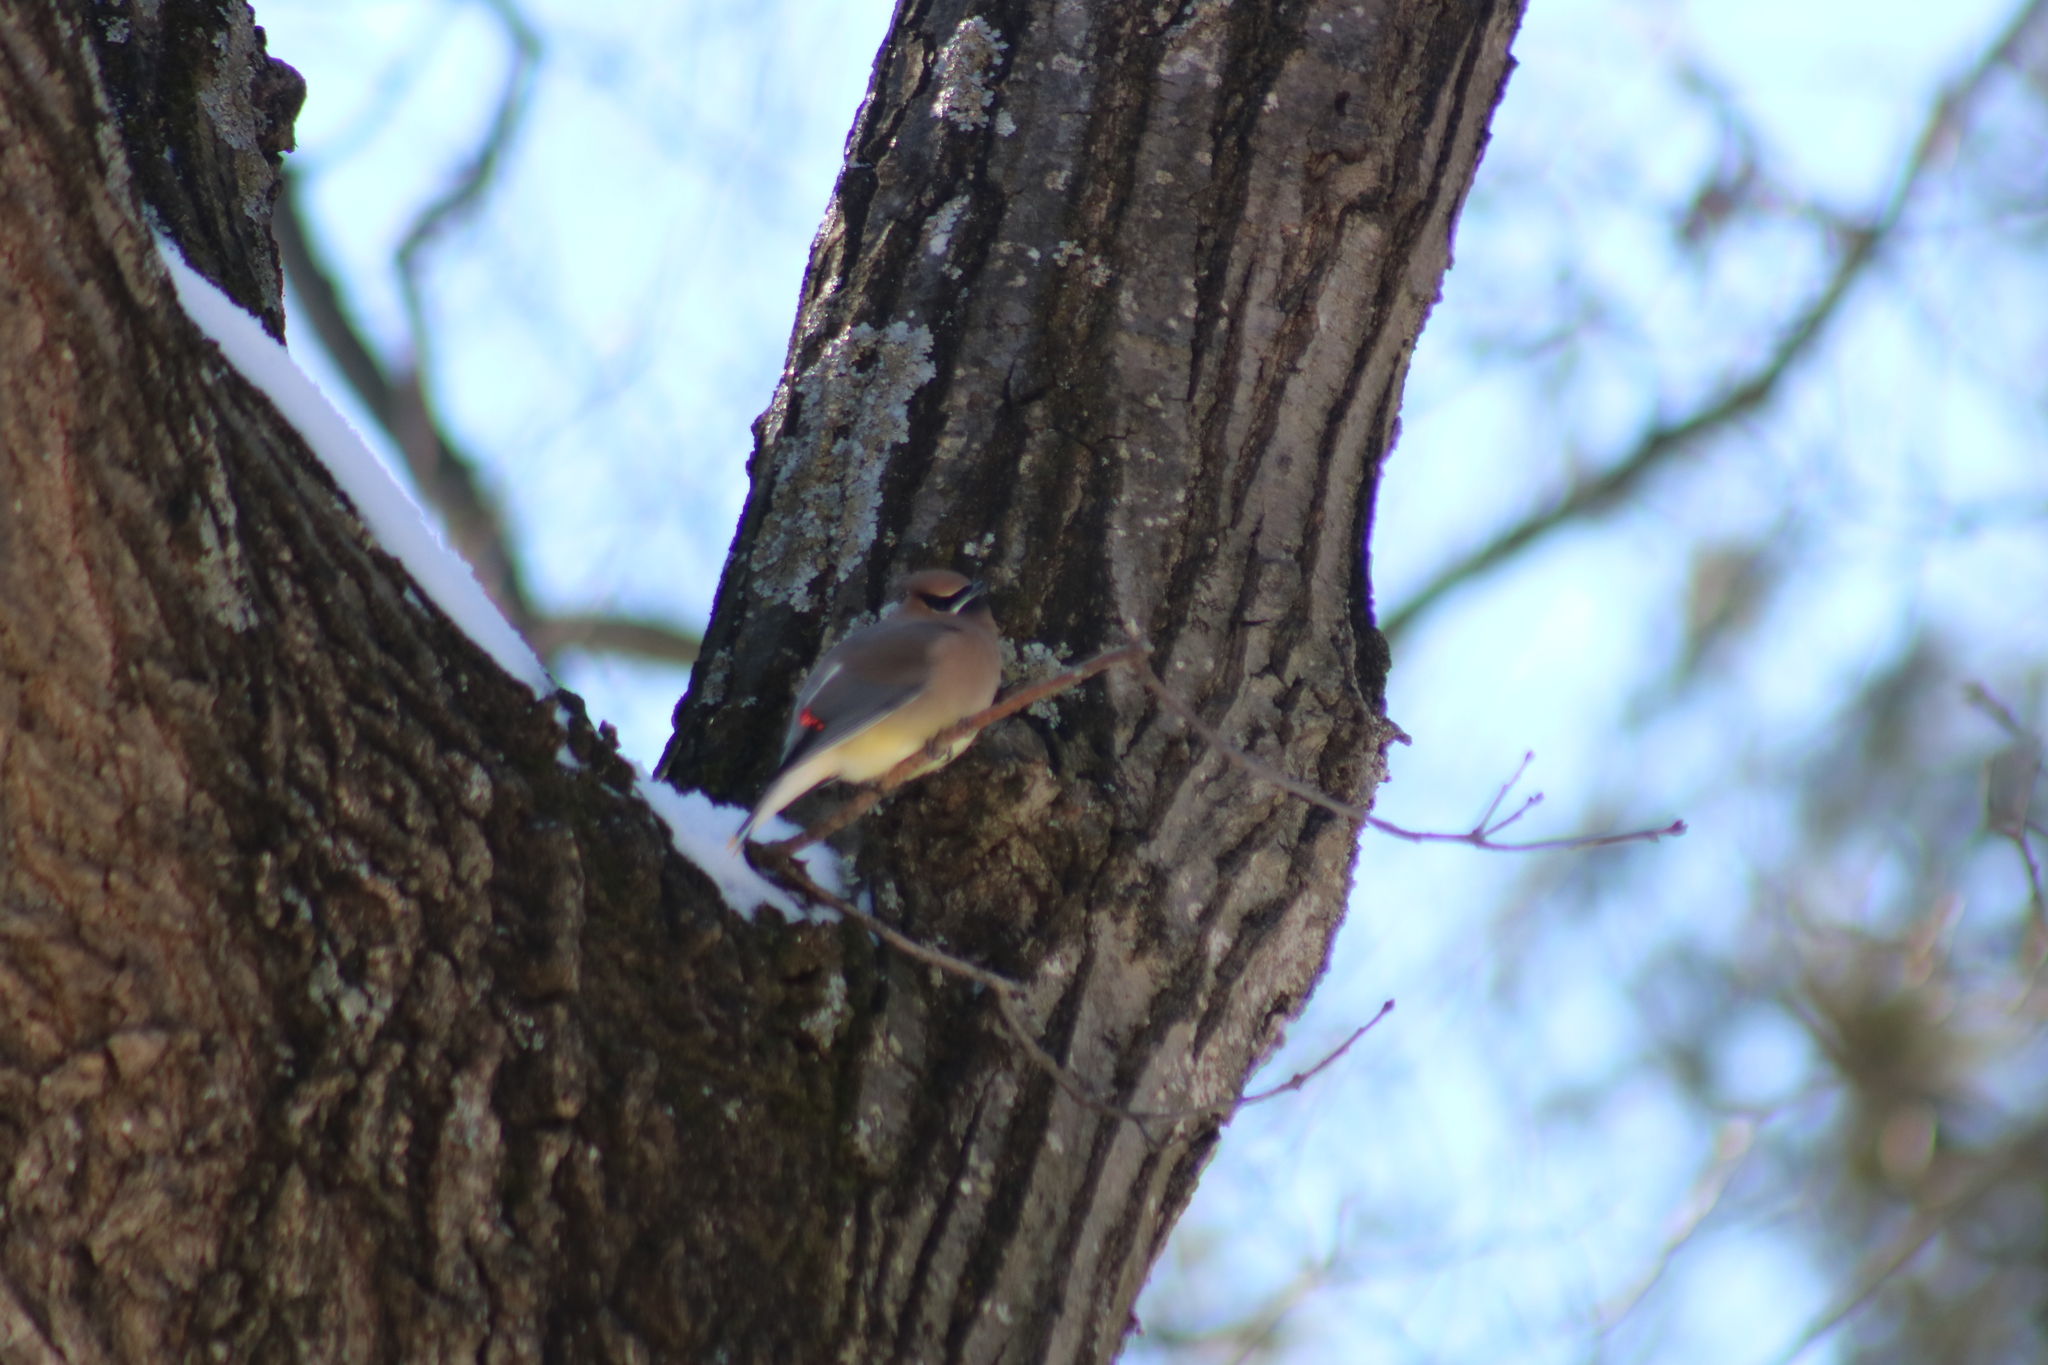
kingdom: Animalia
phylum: Chordata
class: Aves
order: Passeriformes
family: Bombycillidae
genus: Bombycilla
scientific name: Bombycilla cedrorum
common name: Cedar waxwing
